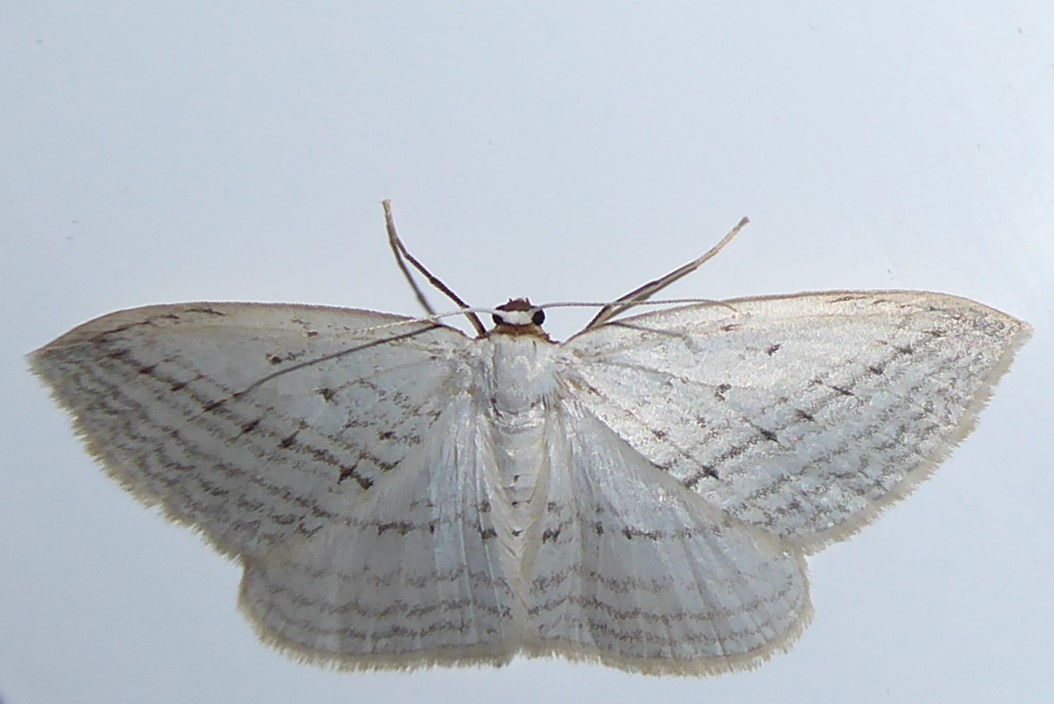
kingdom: Animalia
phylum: Arthropoda
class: Insecta
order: Lepidoptera
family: Geometridae
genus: Orthoclydon
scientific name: Orthoclydon praefectata
